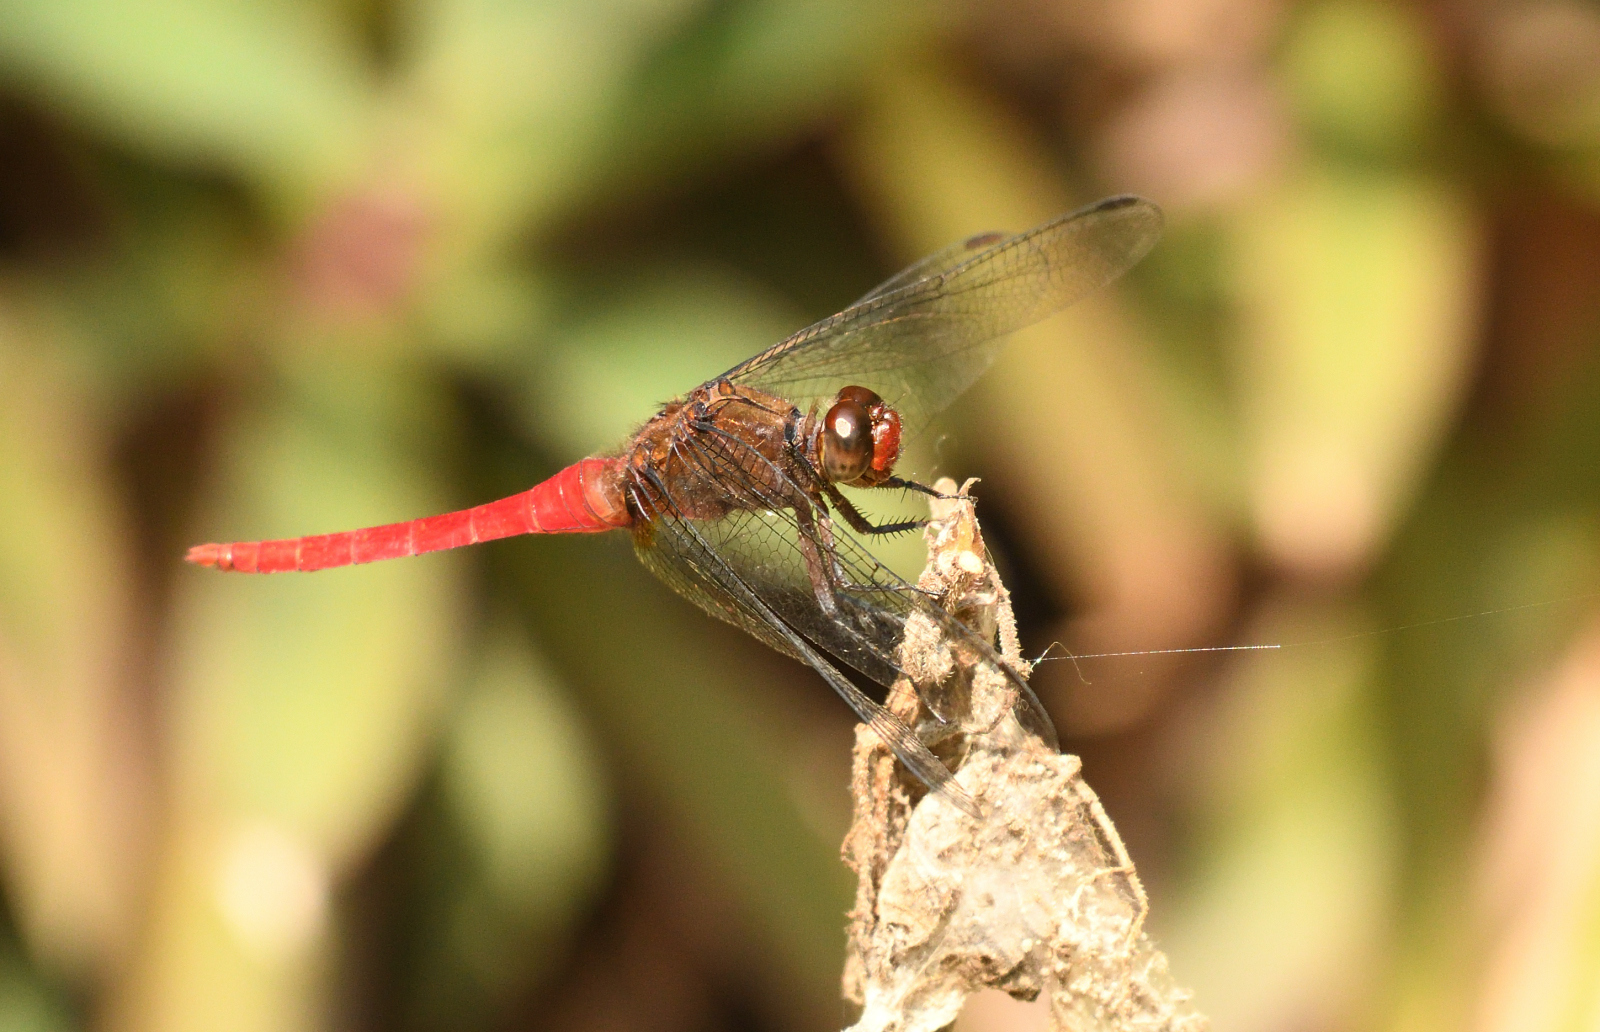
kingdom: Animalia
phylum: Arthropoda
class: Insecta
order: Odonata
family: Libellulidae
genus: Orthetrum
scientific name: Orthetrum chrysis
